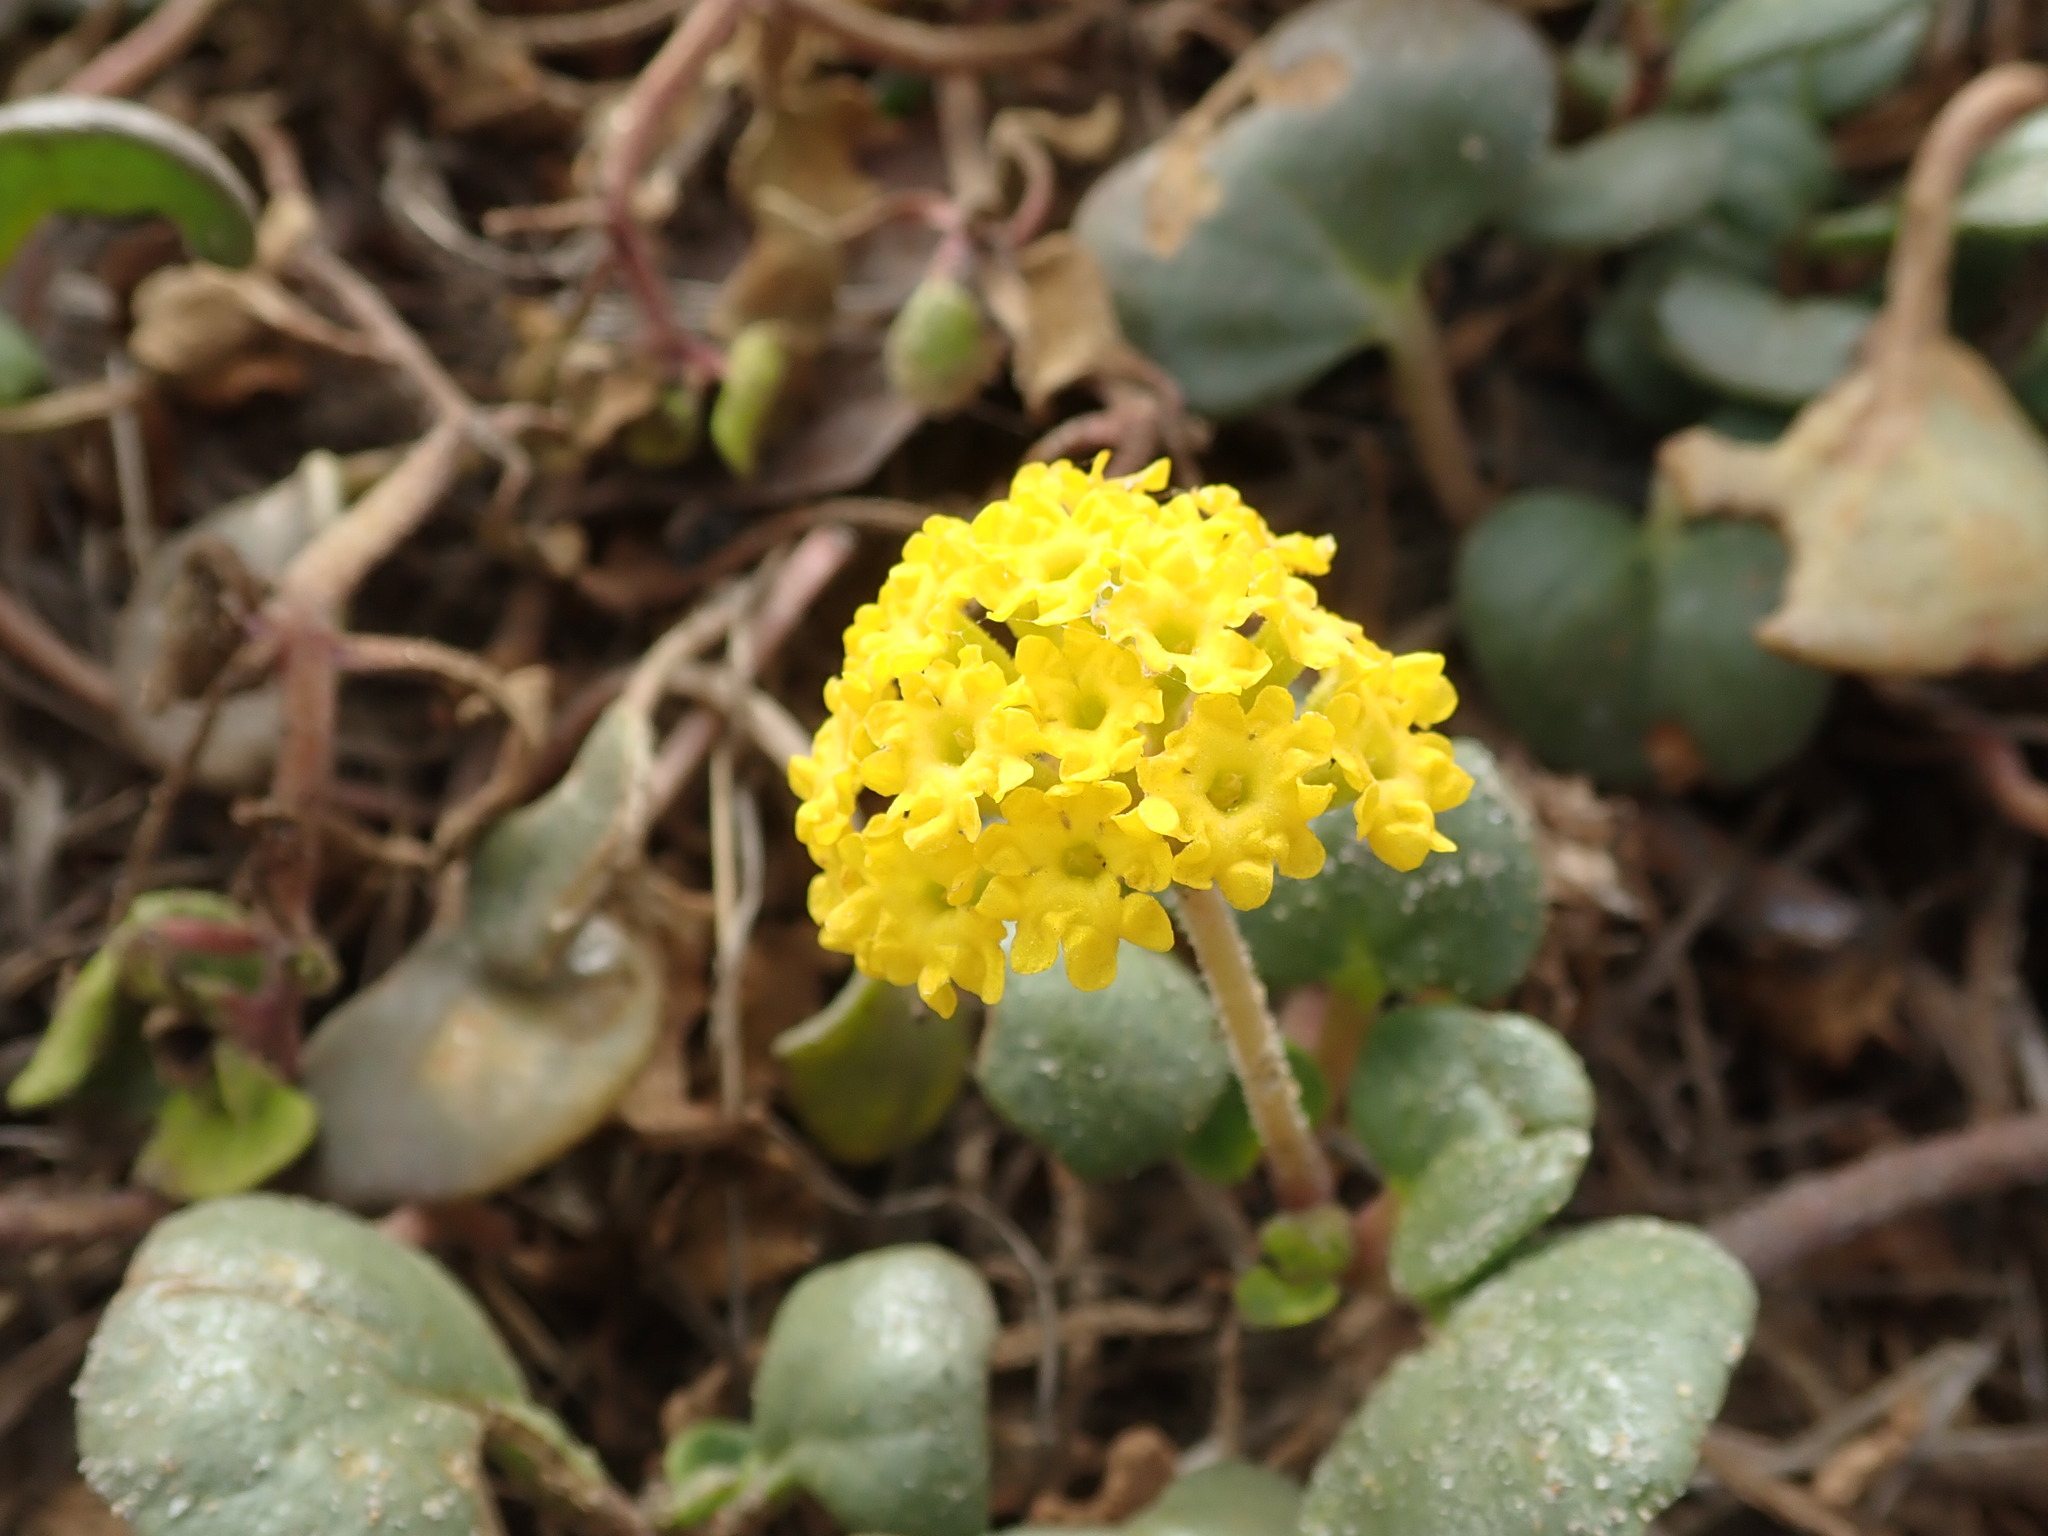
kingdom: Plantae
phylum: Tracheophyta
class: Magnoliopsida
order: Caryophyllales
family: Nyctaginaceae
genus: Abronia
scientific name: Abronia latifolia
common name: Yellow sand-verbena
